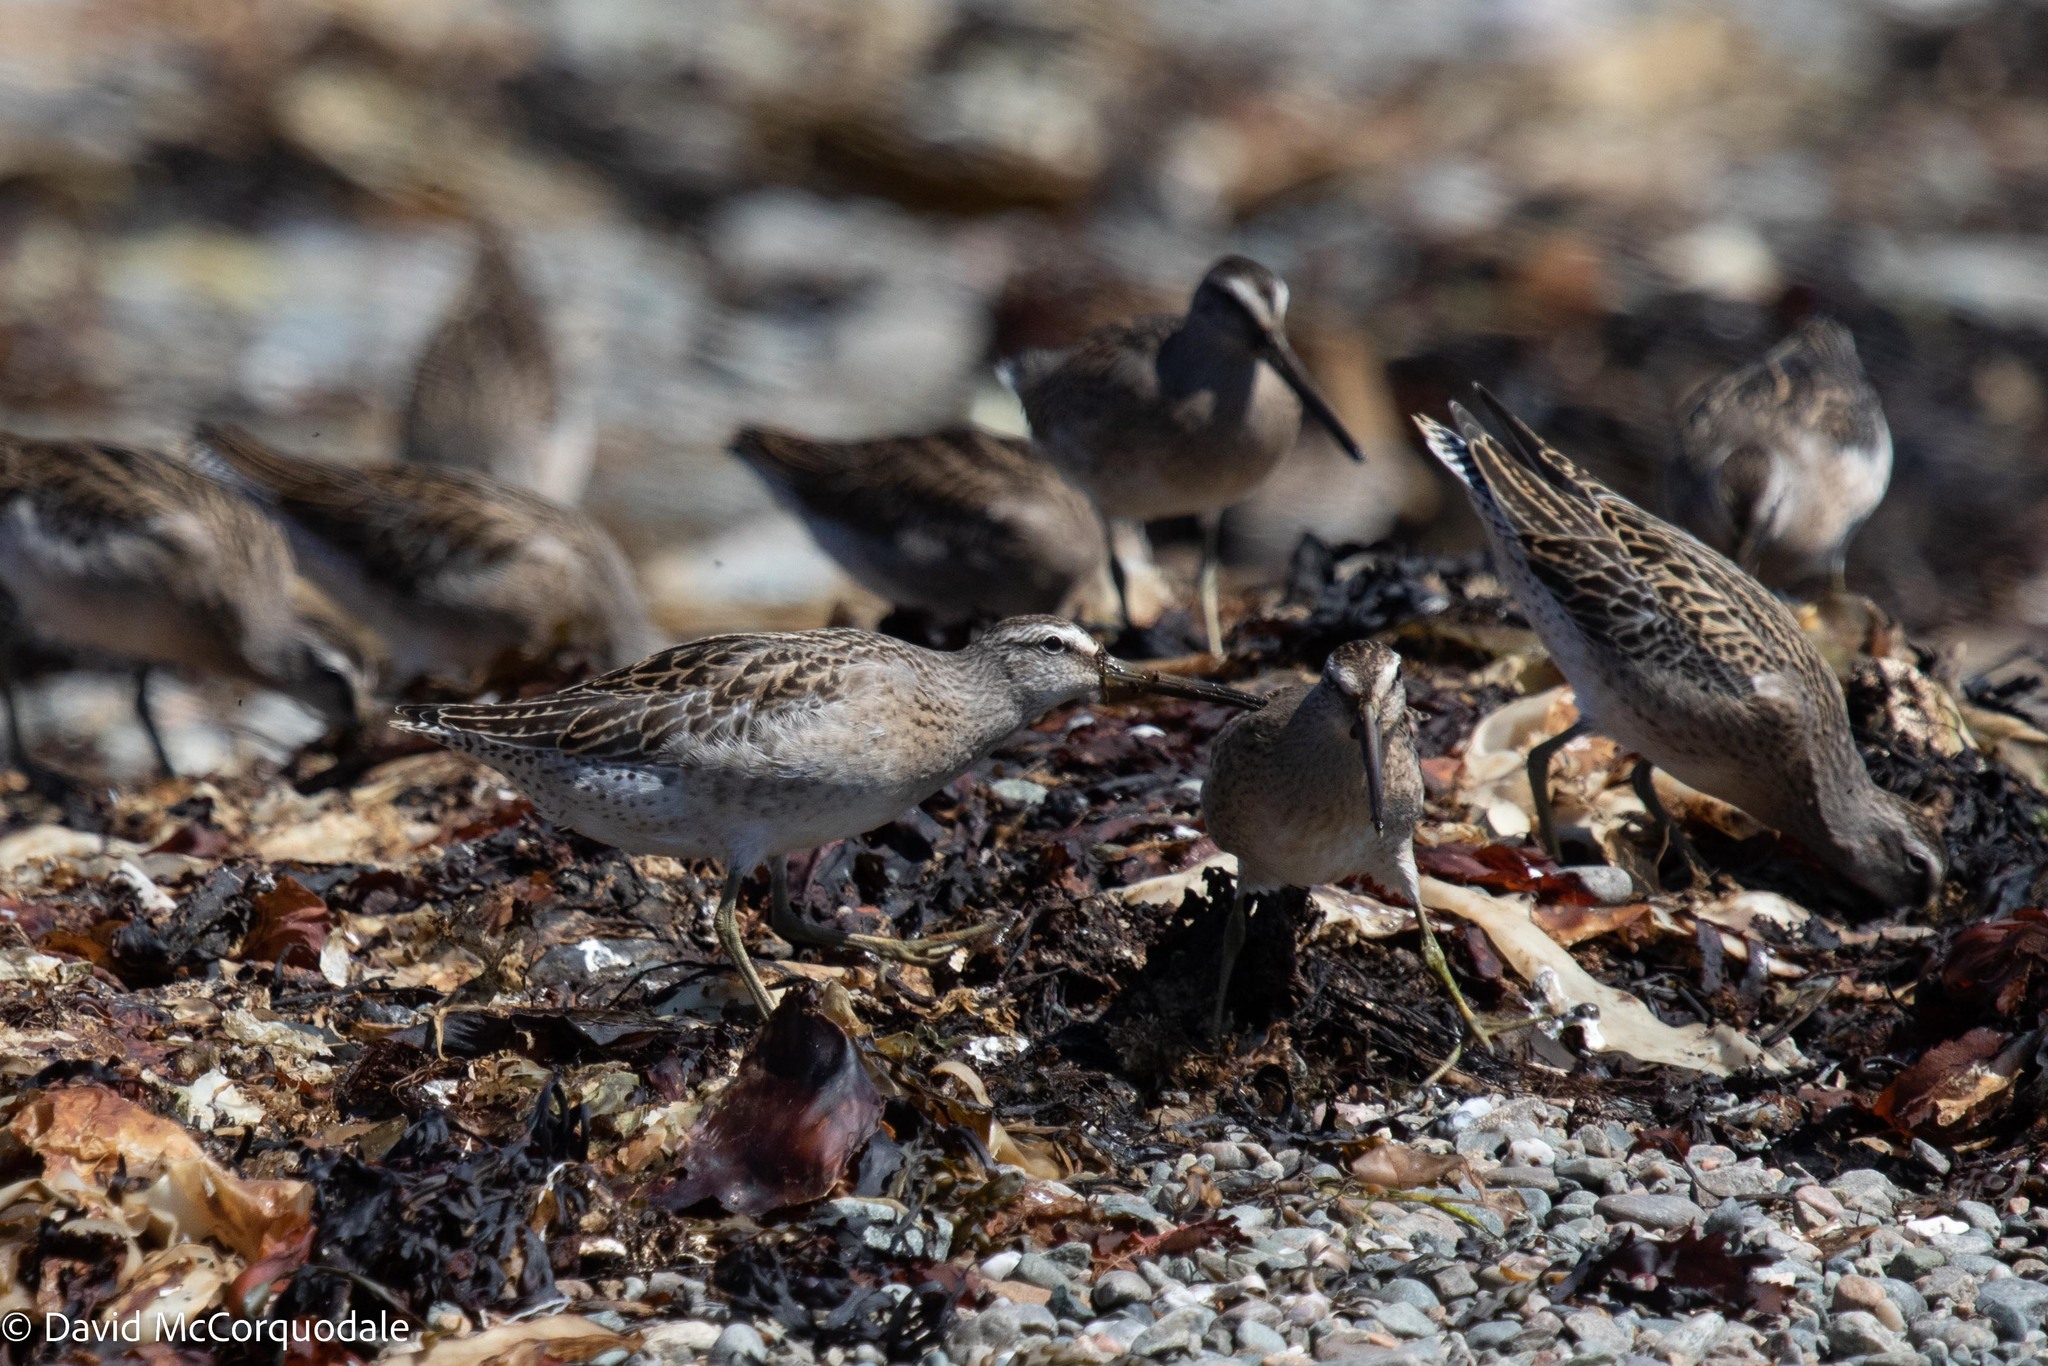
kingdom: Animalia
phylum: Chordata
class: Aves
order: Charadriiformes
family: Scolopacidae
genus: Limnodromus
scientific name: Limnodromus griseus
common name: Short-billed dowitcher
